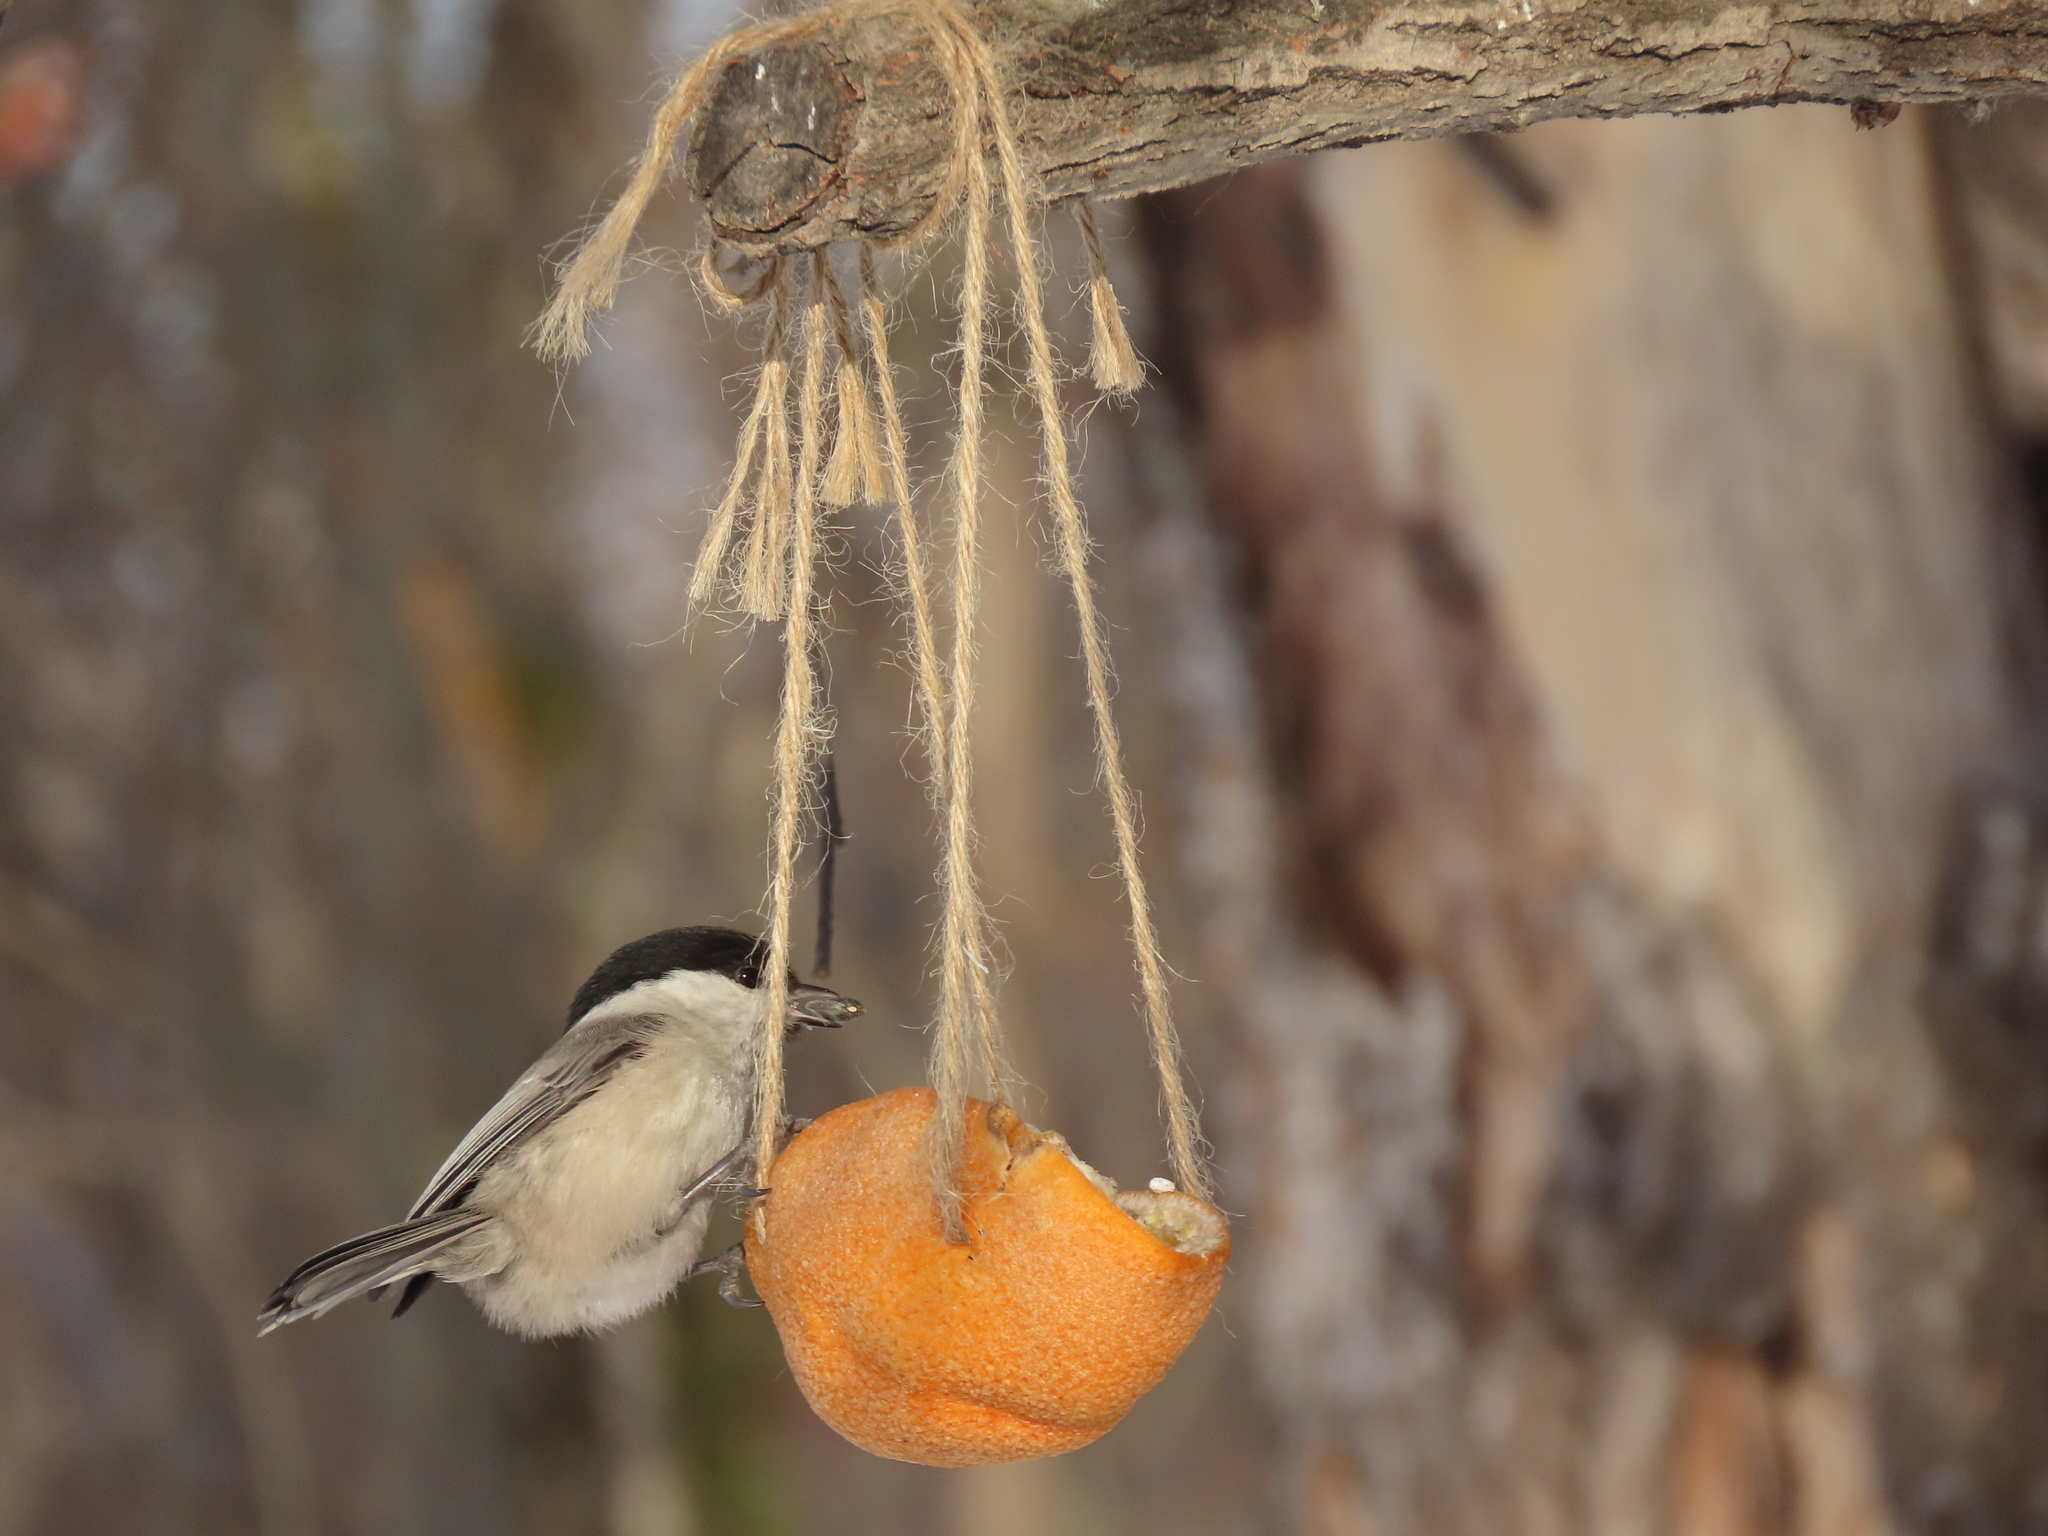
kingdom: Animalia
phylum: Chordata
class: Aves
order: Passeriformes
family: Paridae
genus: Poecile
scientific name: Poecile montanus
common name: Willow tit
